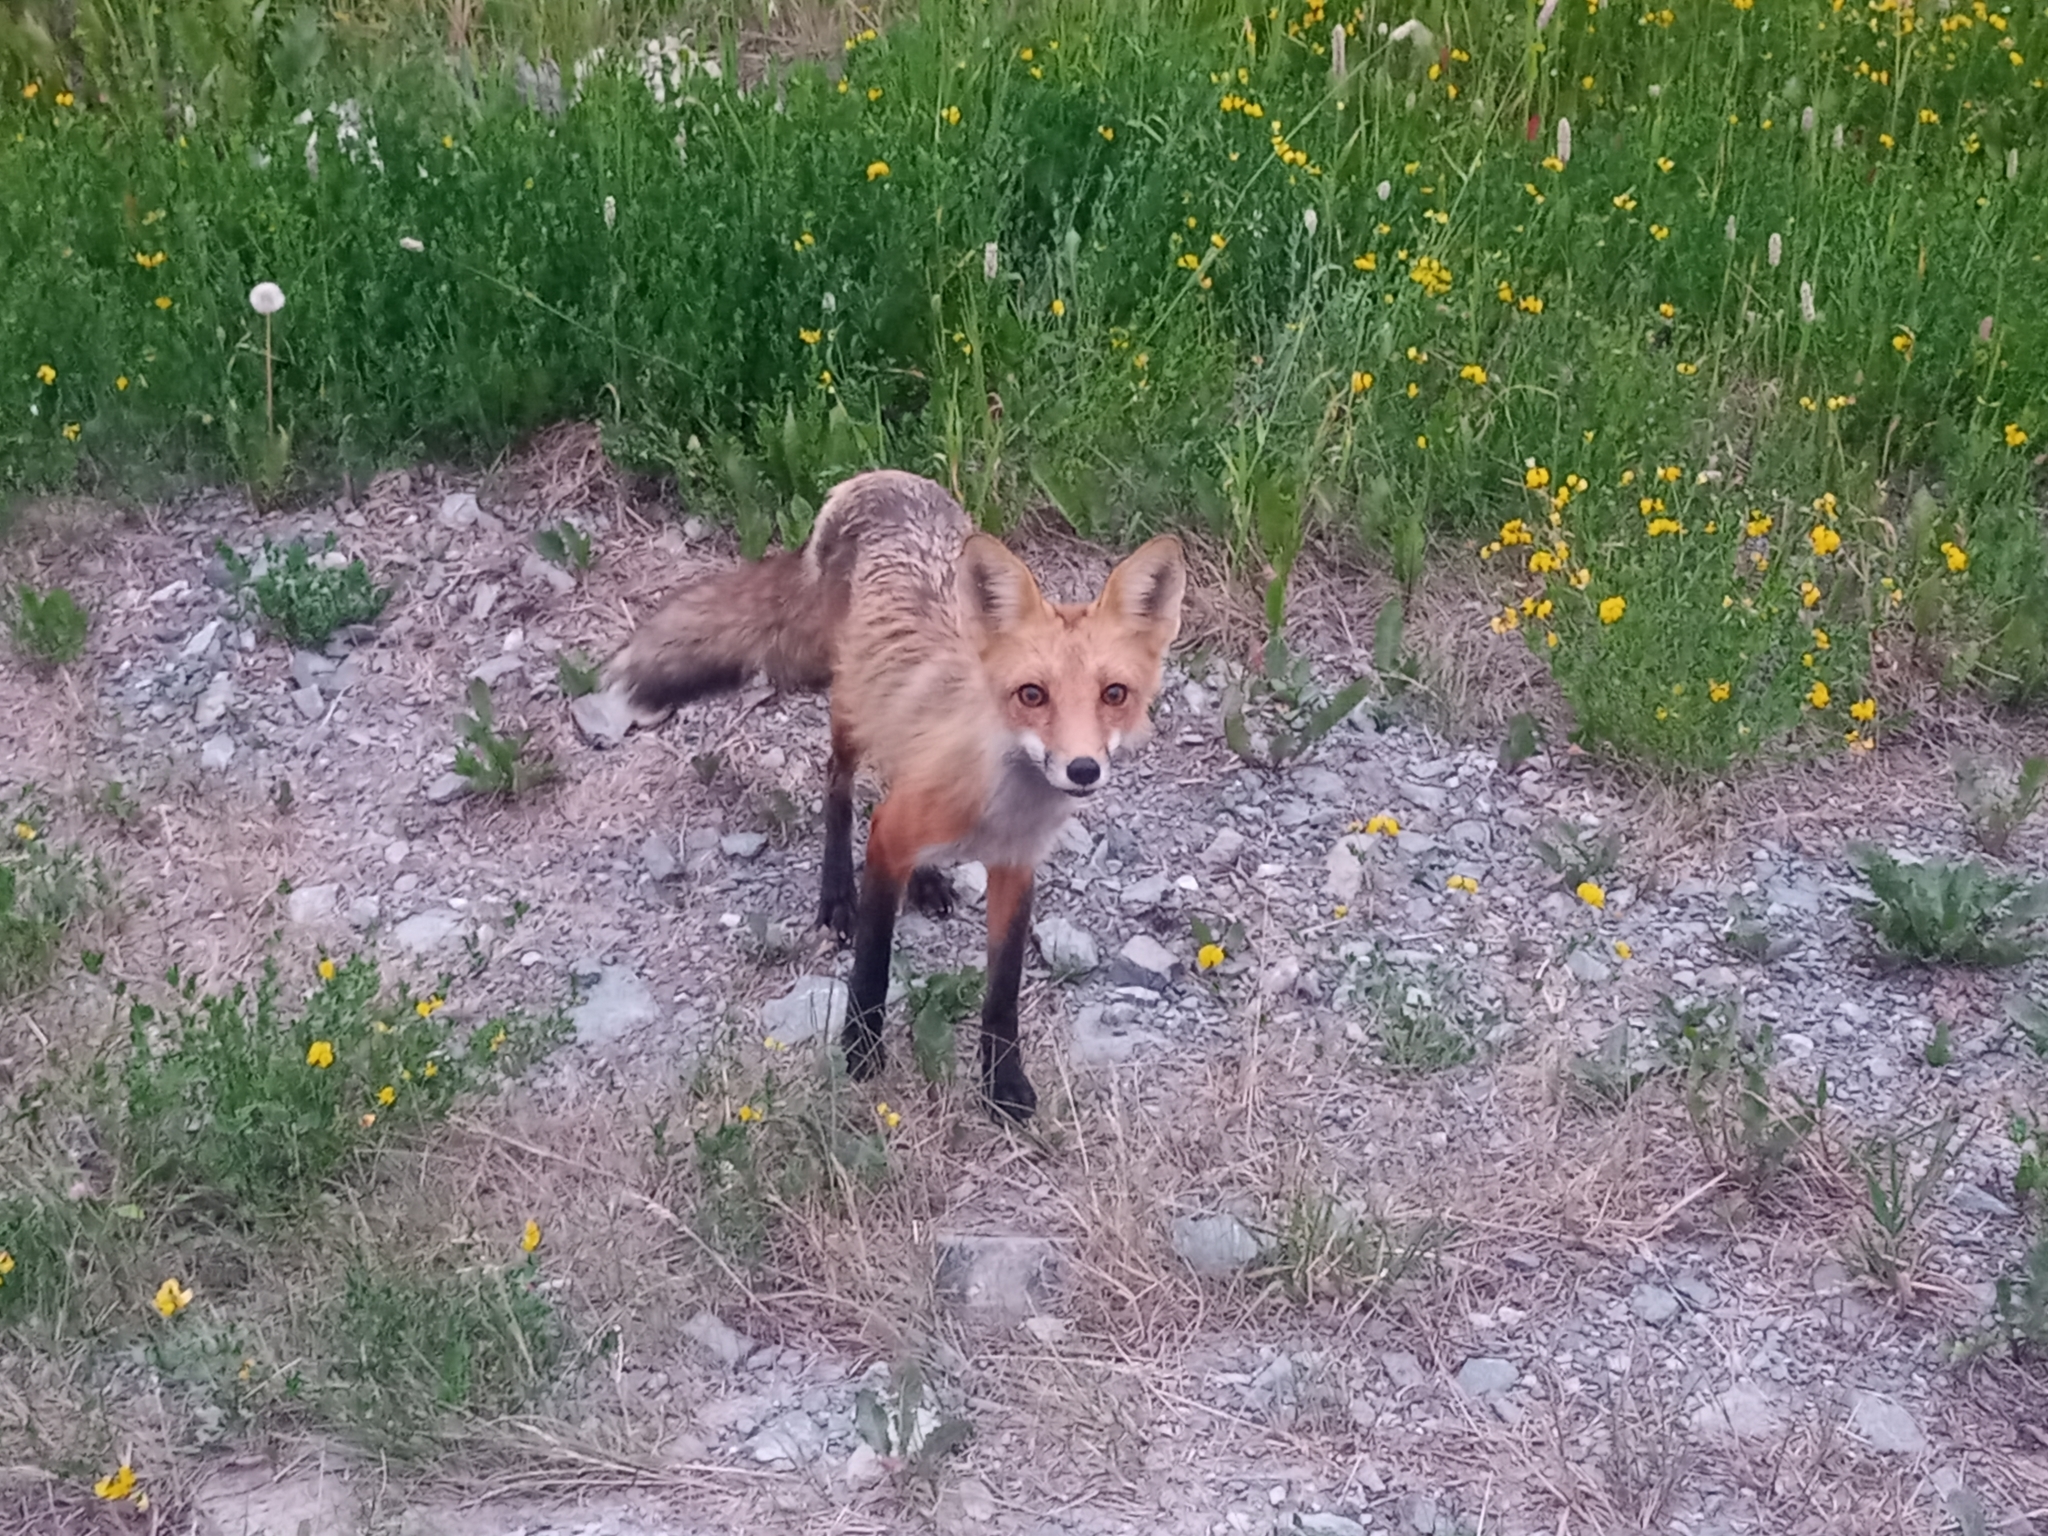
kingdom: Animalia
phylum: Chordata
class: Mammalia
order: Carnivora
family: Canidae
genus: Vulpes
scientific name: Vulpes vulpes
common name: Red fox
